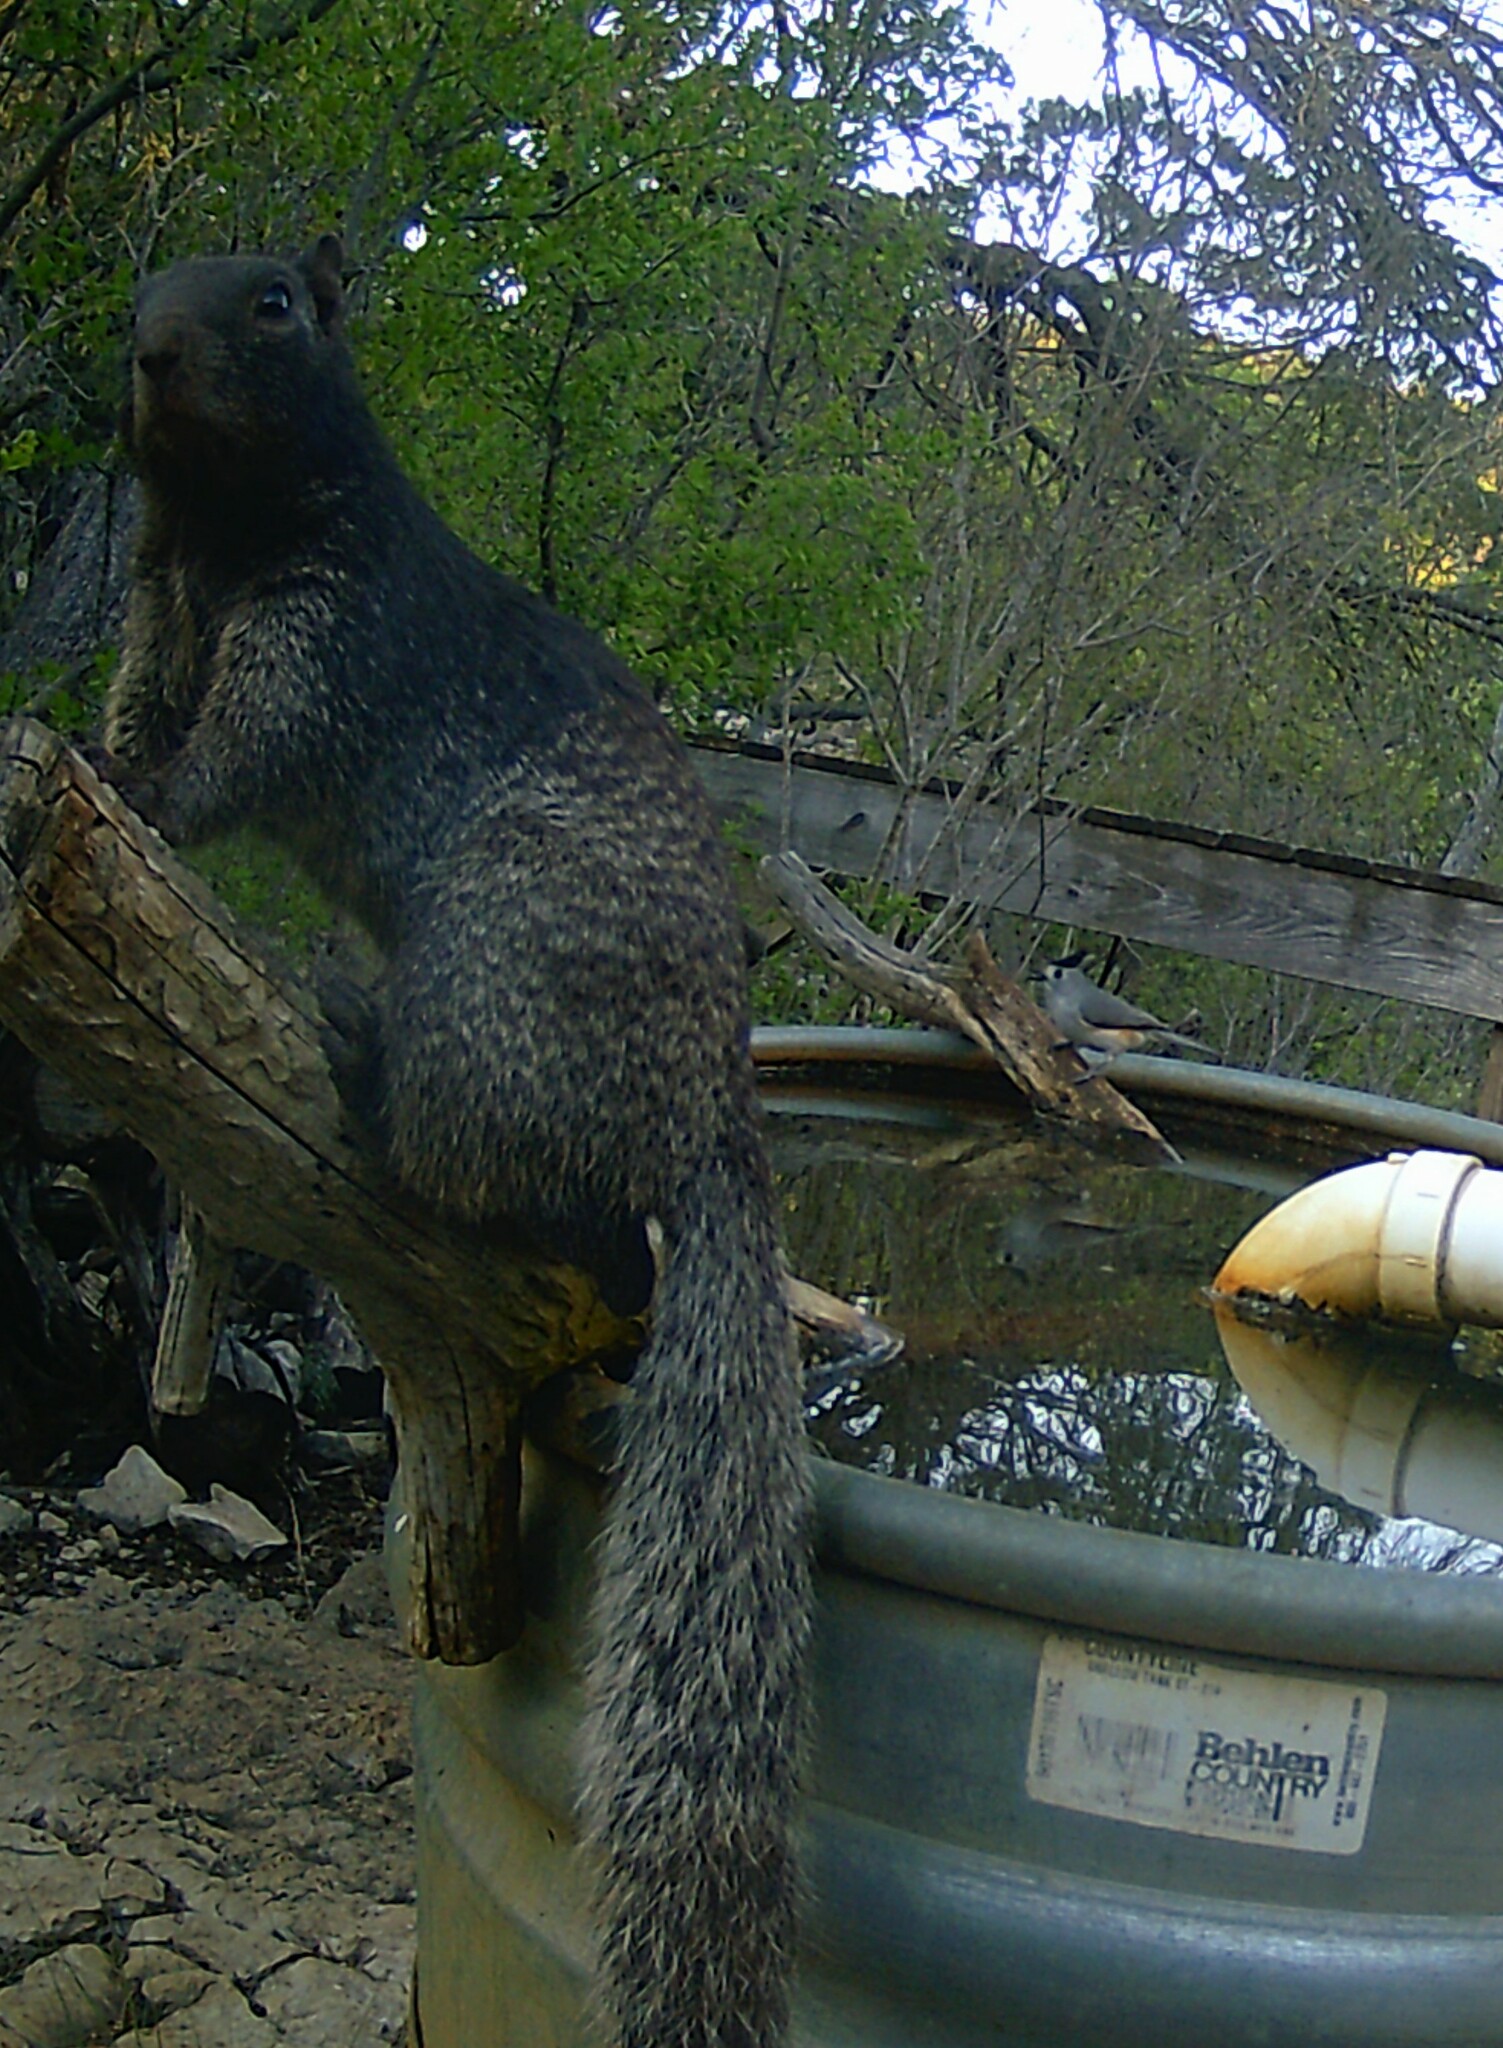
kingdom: Animalia
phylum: Chordata
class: Mammalia
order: Rodentia
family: Sciuridae
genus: Otospermophilus
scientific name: Otospermophilus variegatus
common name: Rock squirrel
